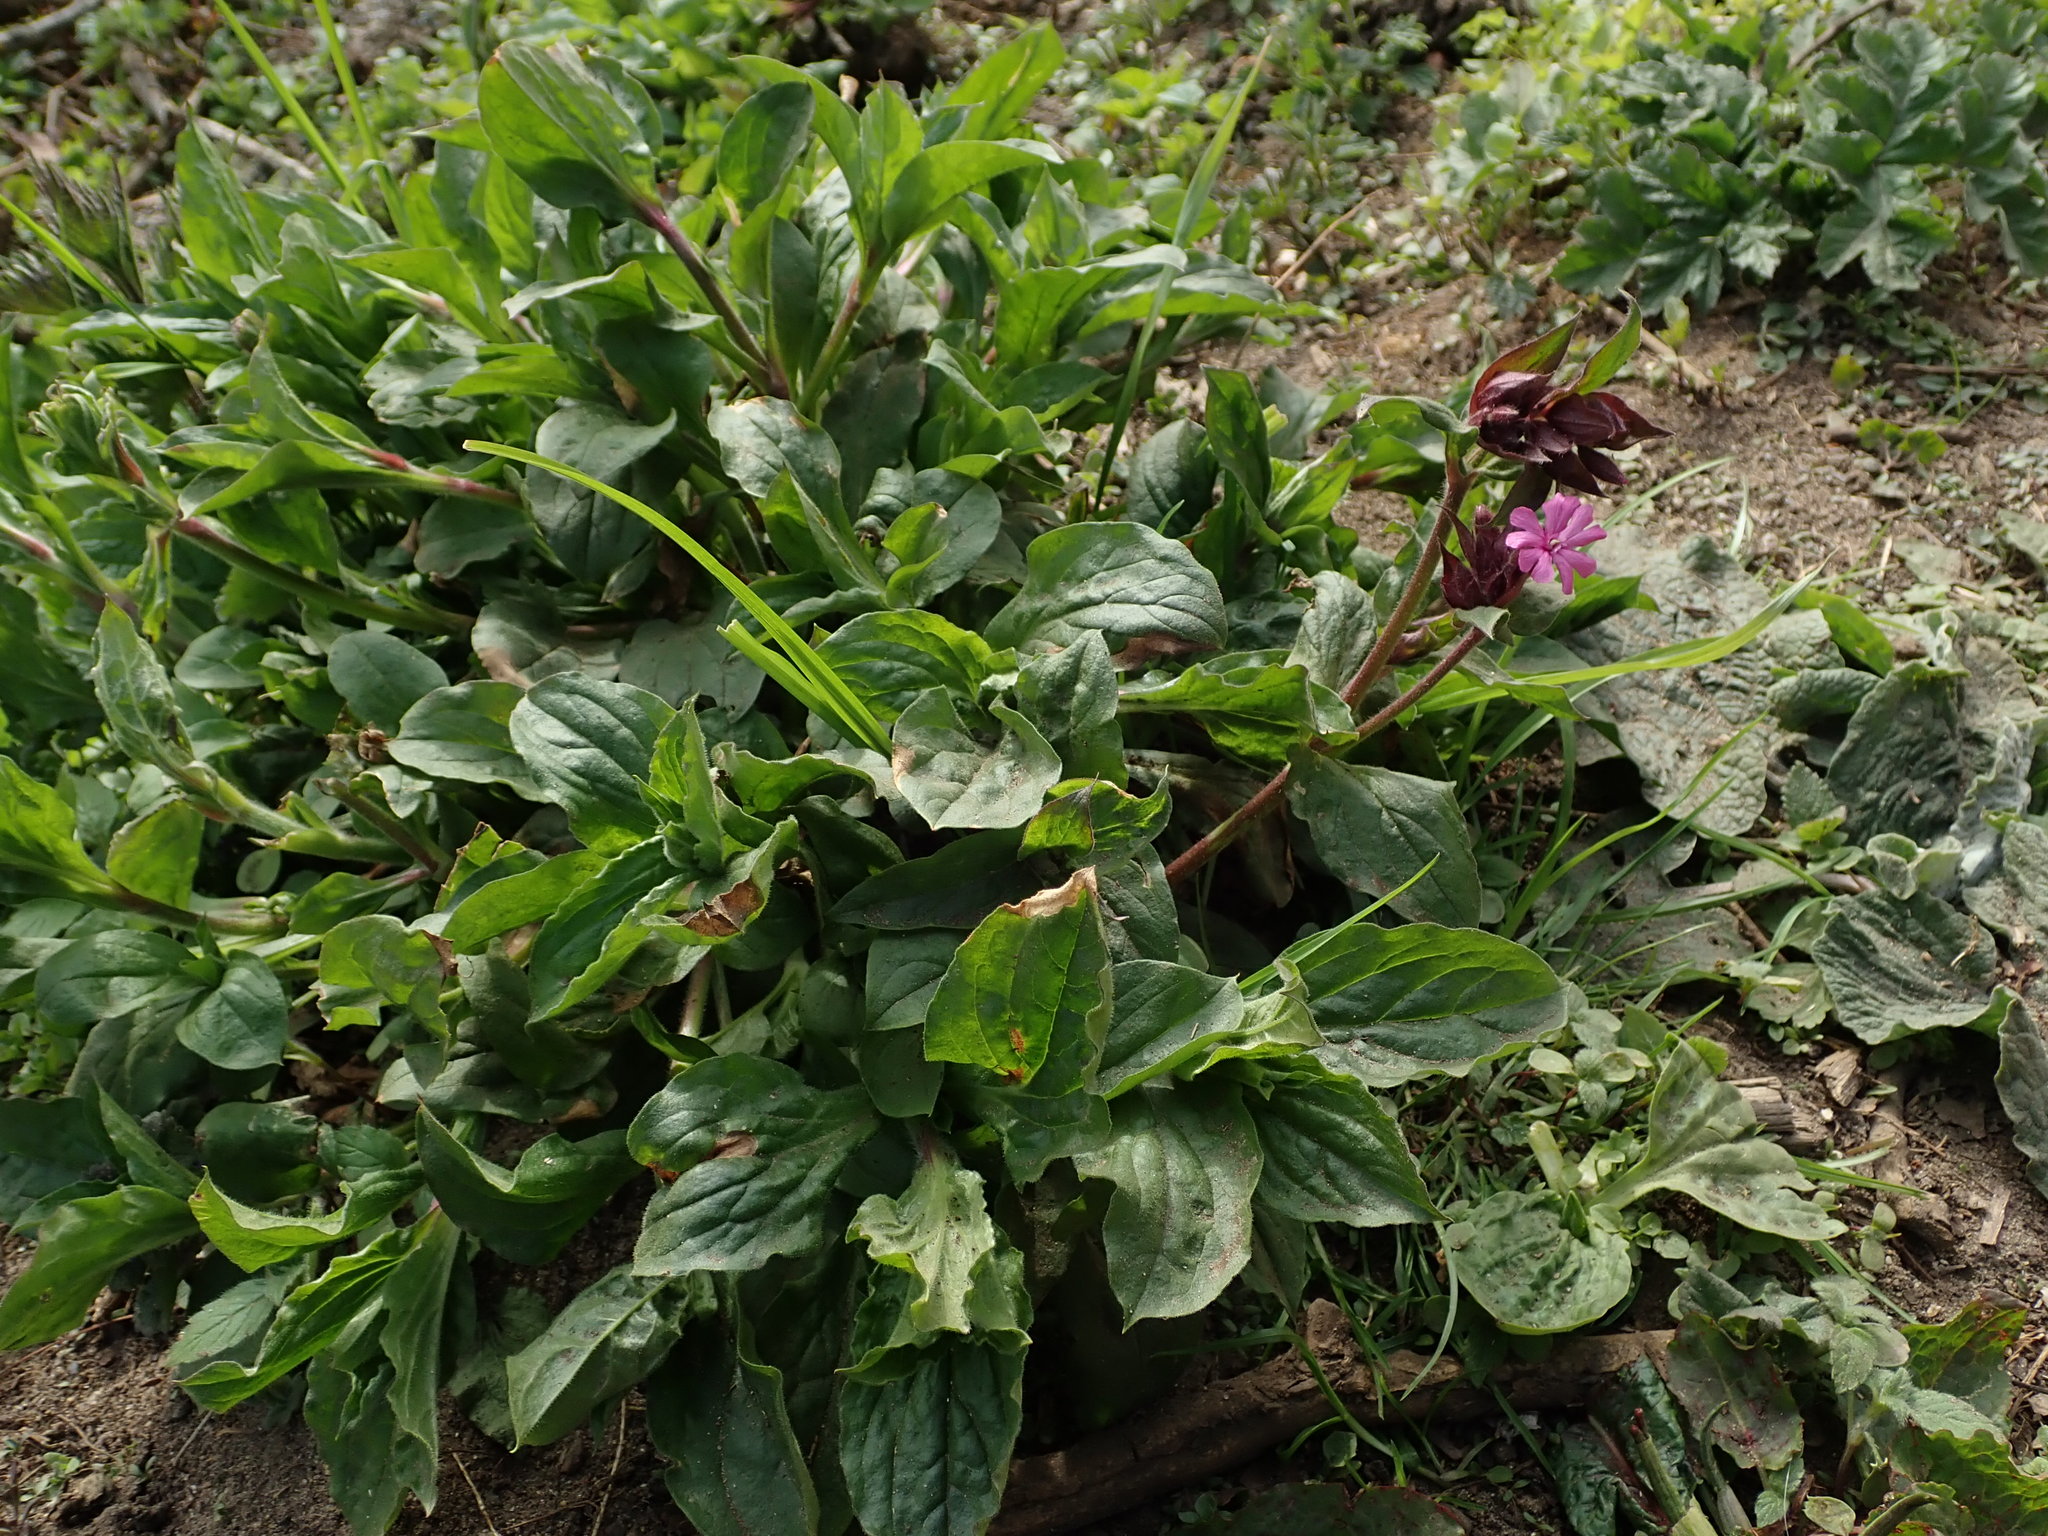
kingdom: Plantae
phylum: Tracheophyta
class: Magnoliopsida
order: Caryophyllales
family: Caryophyllaceae
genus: Silene
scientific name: Silene dioica
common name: Red campion
